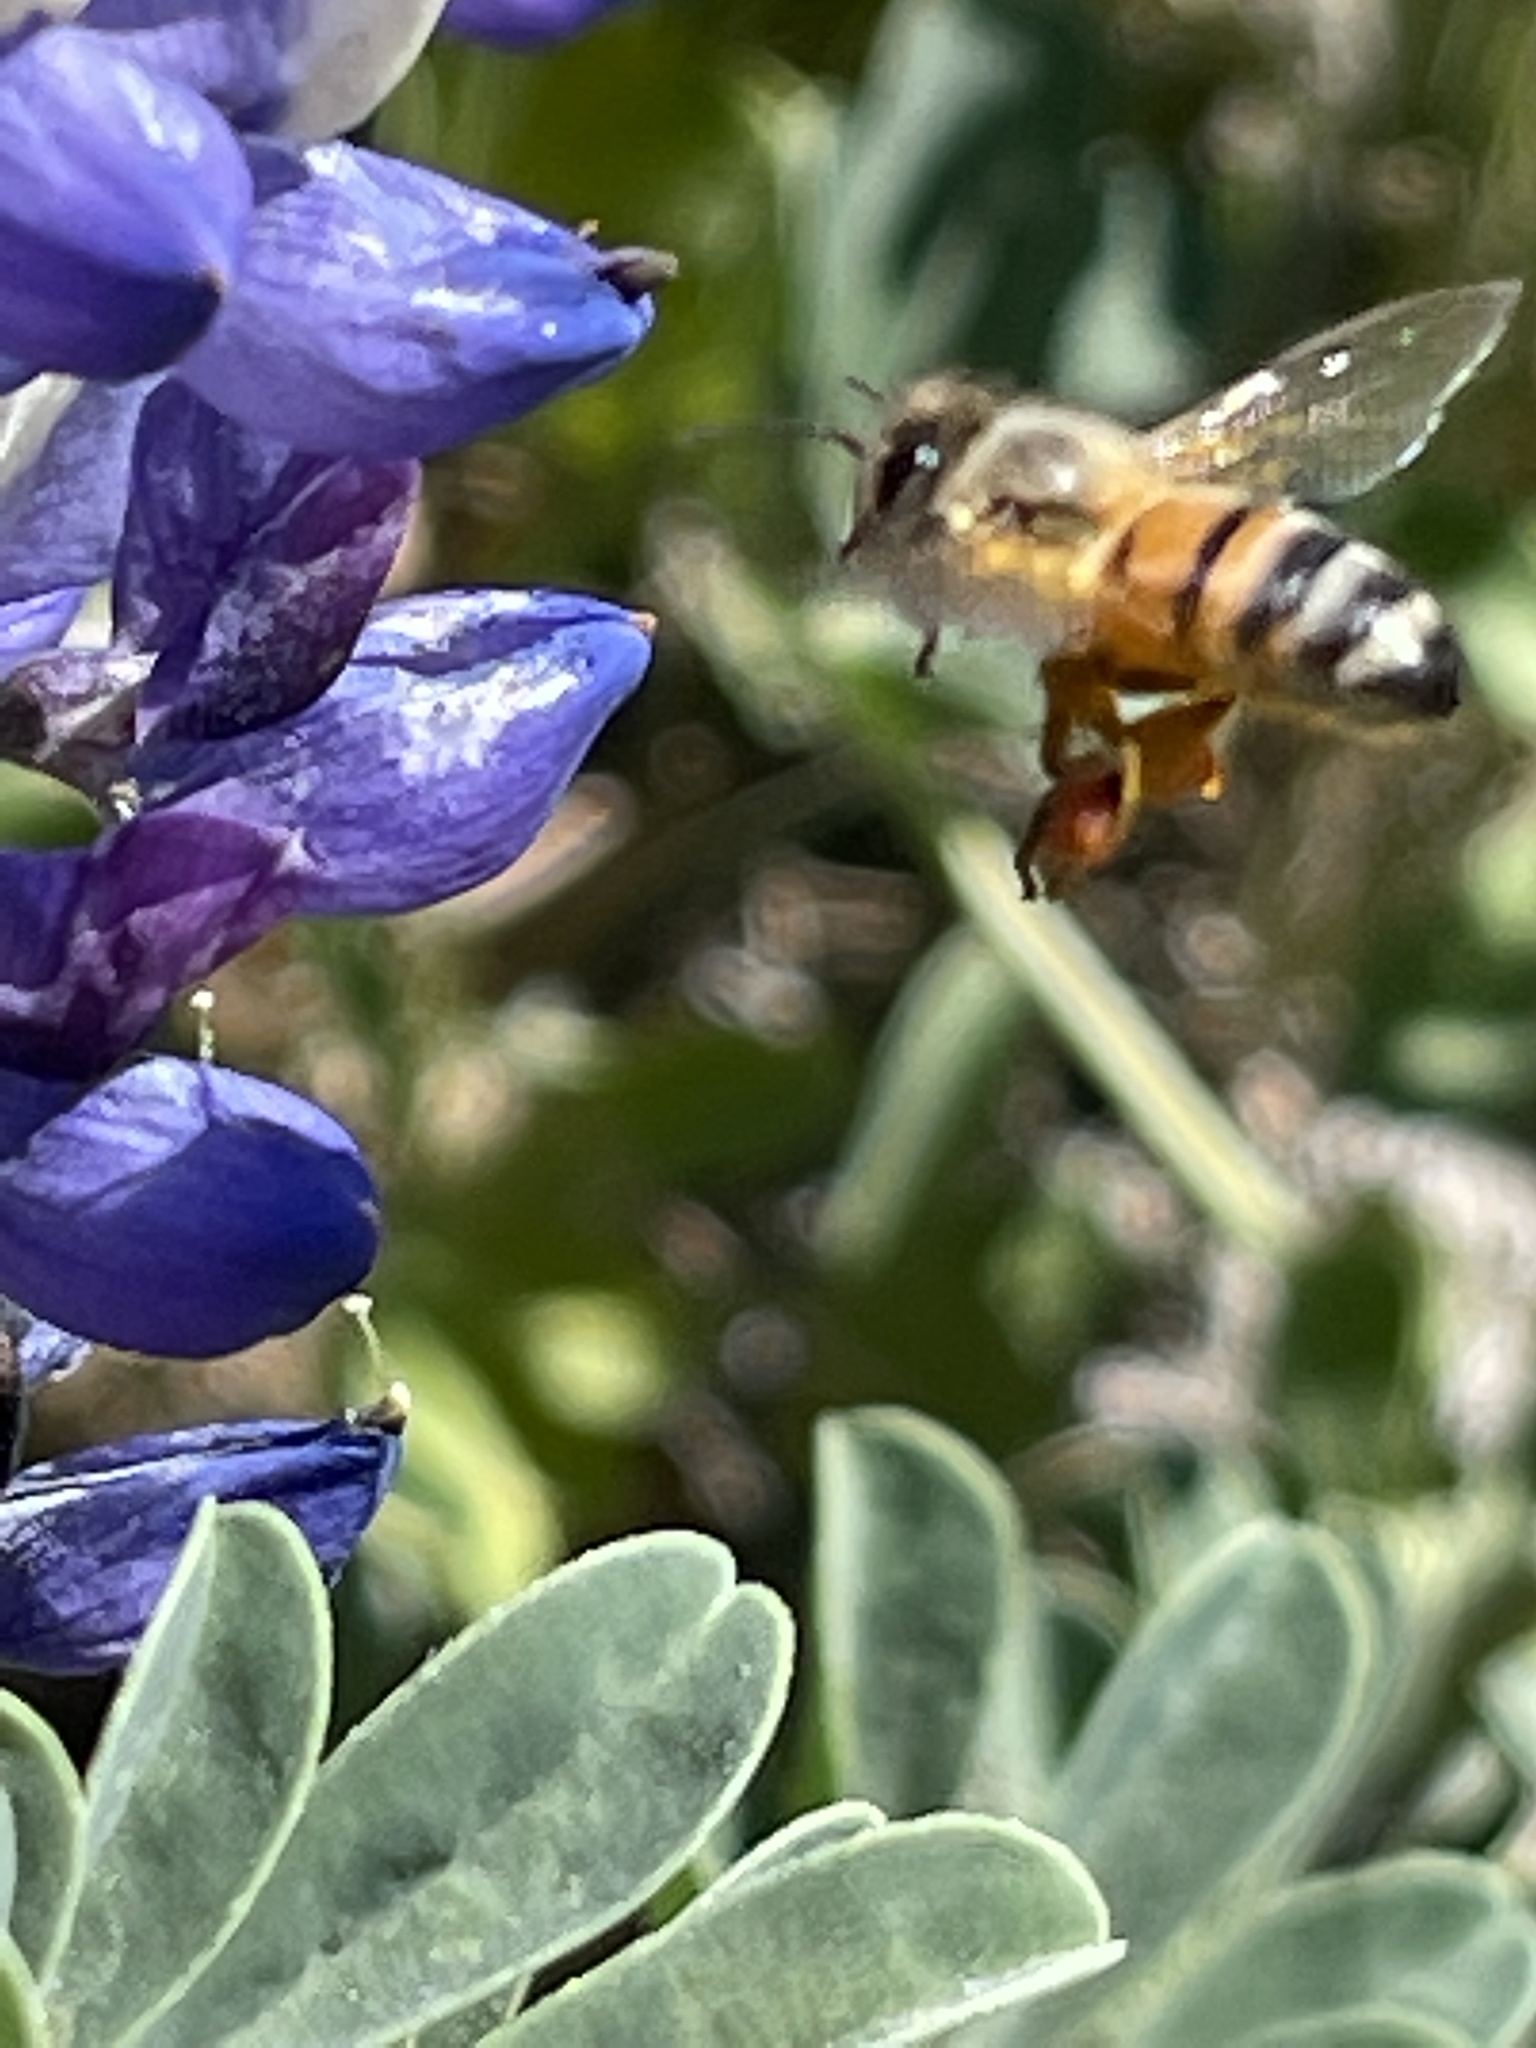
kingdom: Animalia
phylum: Arthropoda
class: Insecta
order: Hymenoptera
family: Apidae
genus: Apis
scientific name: Apis mellifera
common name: Honey bee
